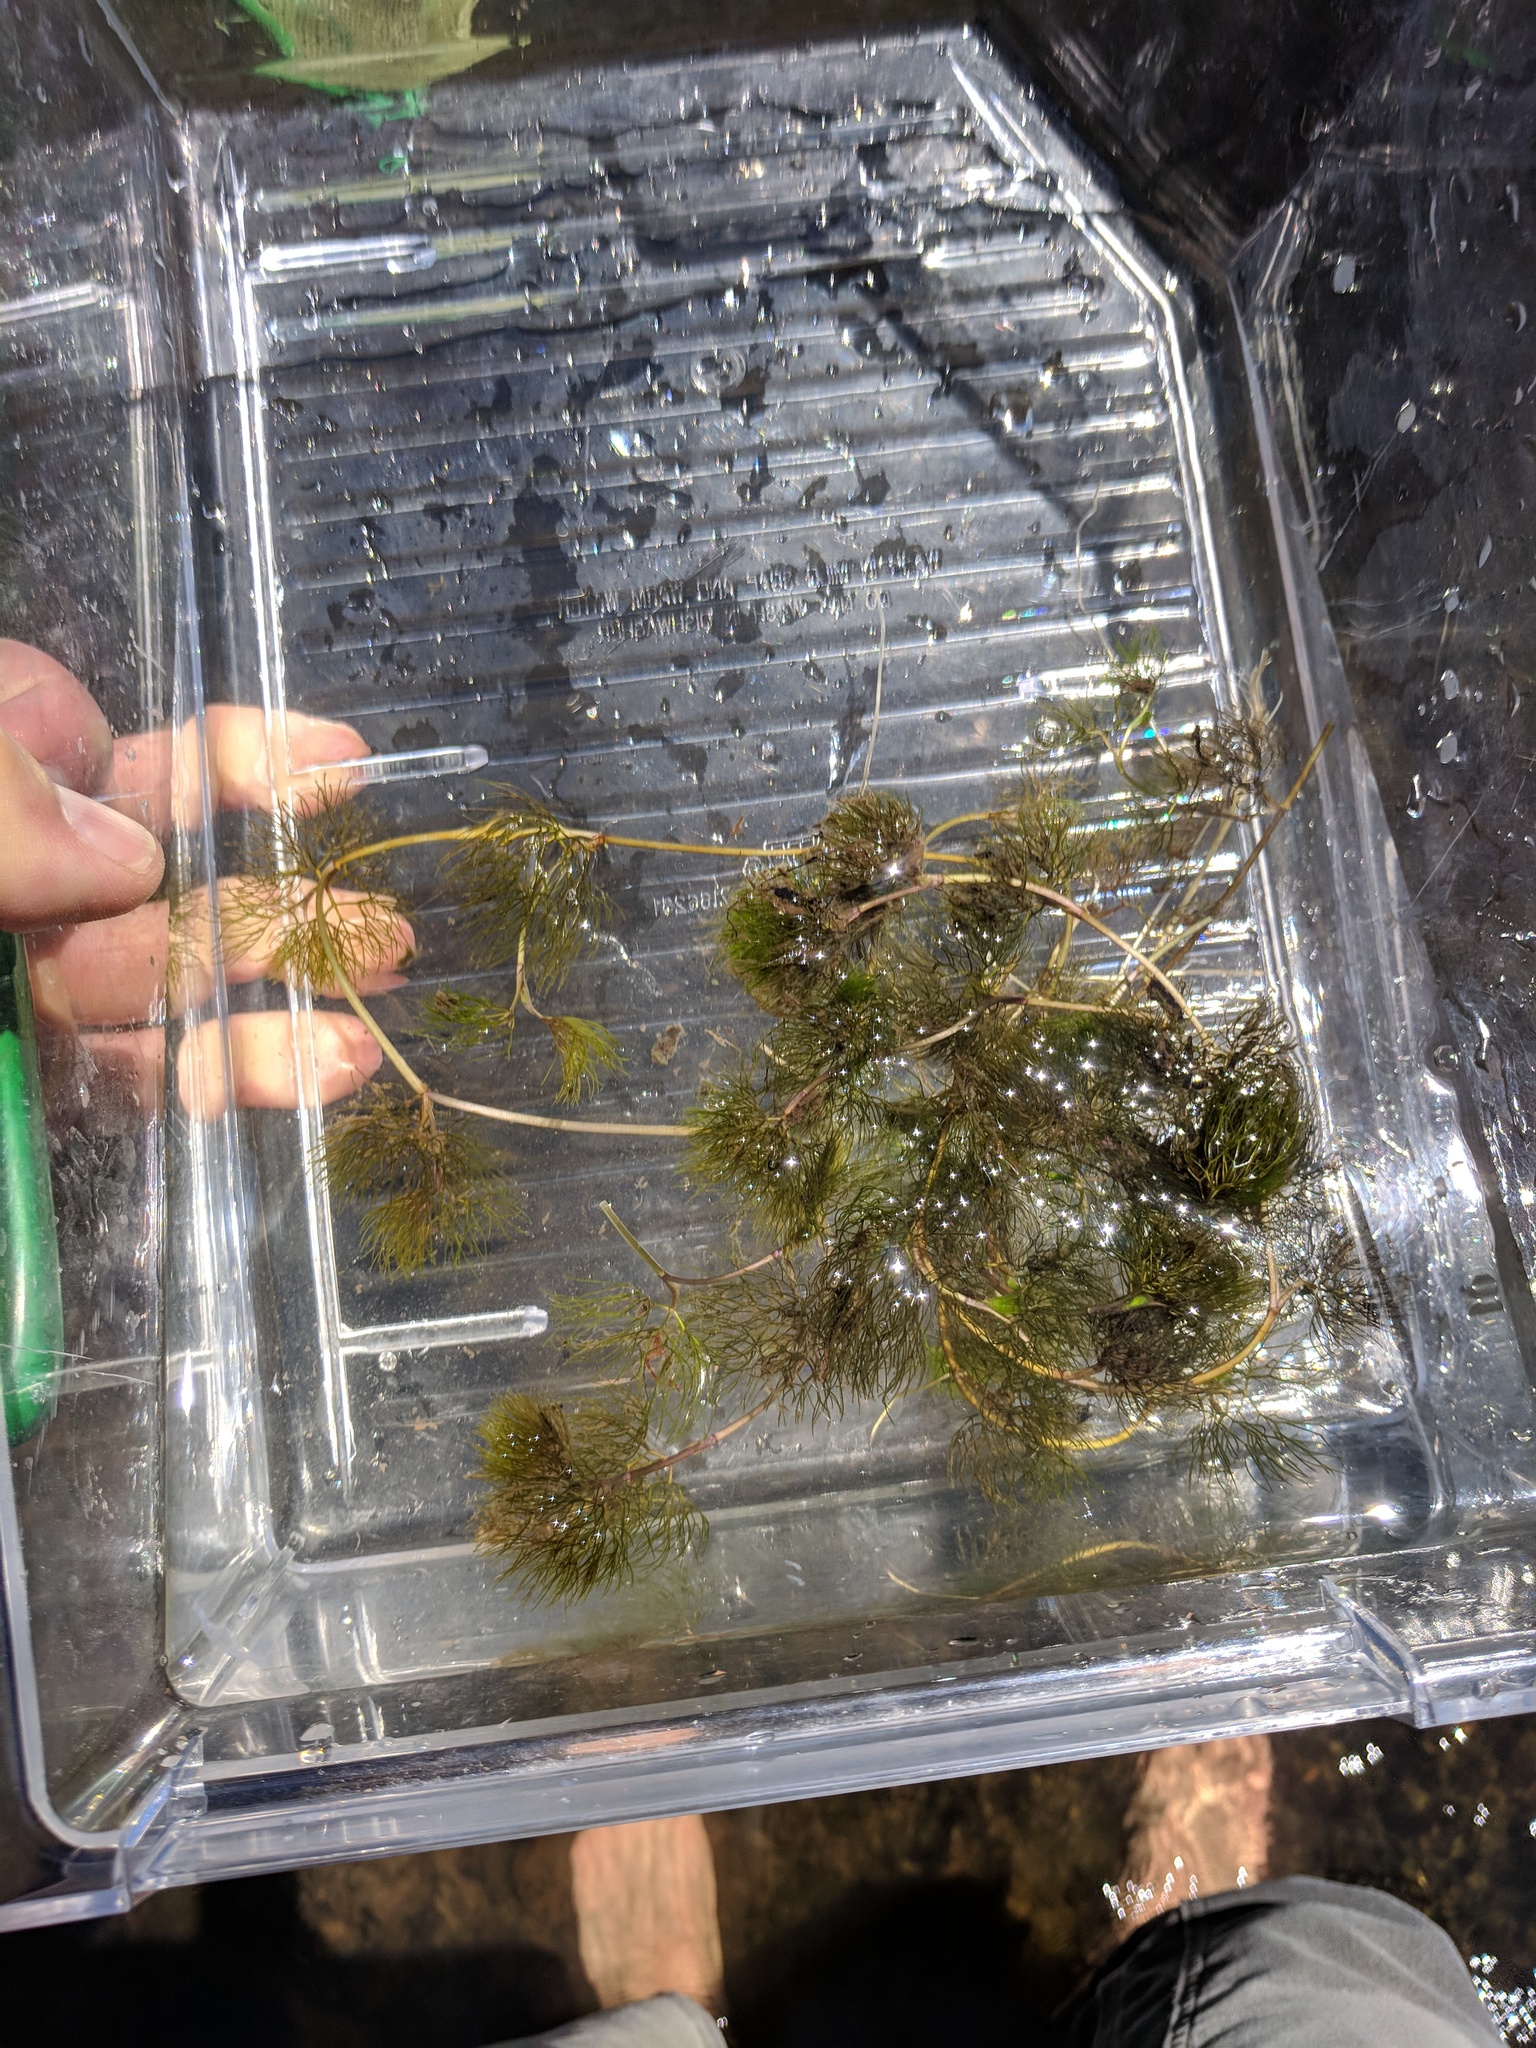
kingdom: Plantae
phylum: Tracheophyta
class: Magnoliopsida
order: Ceratophyllales
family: Ceratophyllaceae
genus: Ceratophyllum
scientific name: Ceratophyllum demersum
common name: Rigid hornwort
